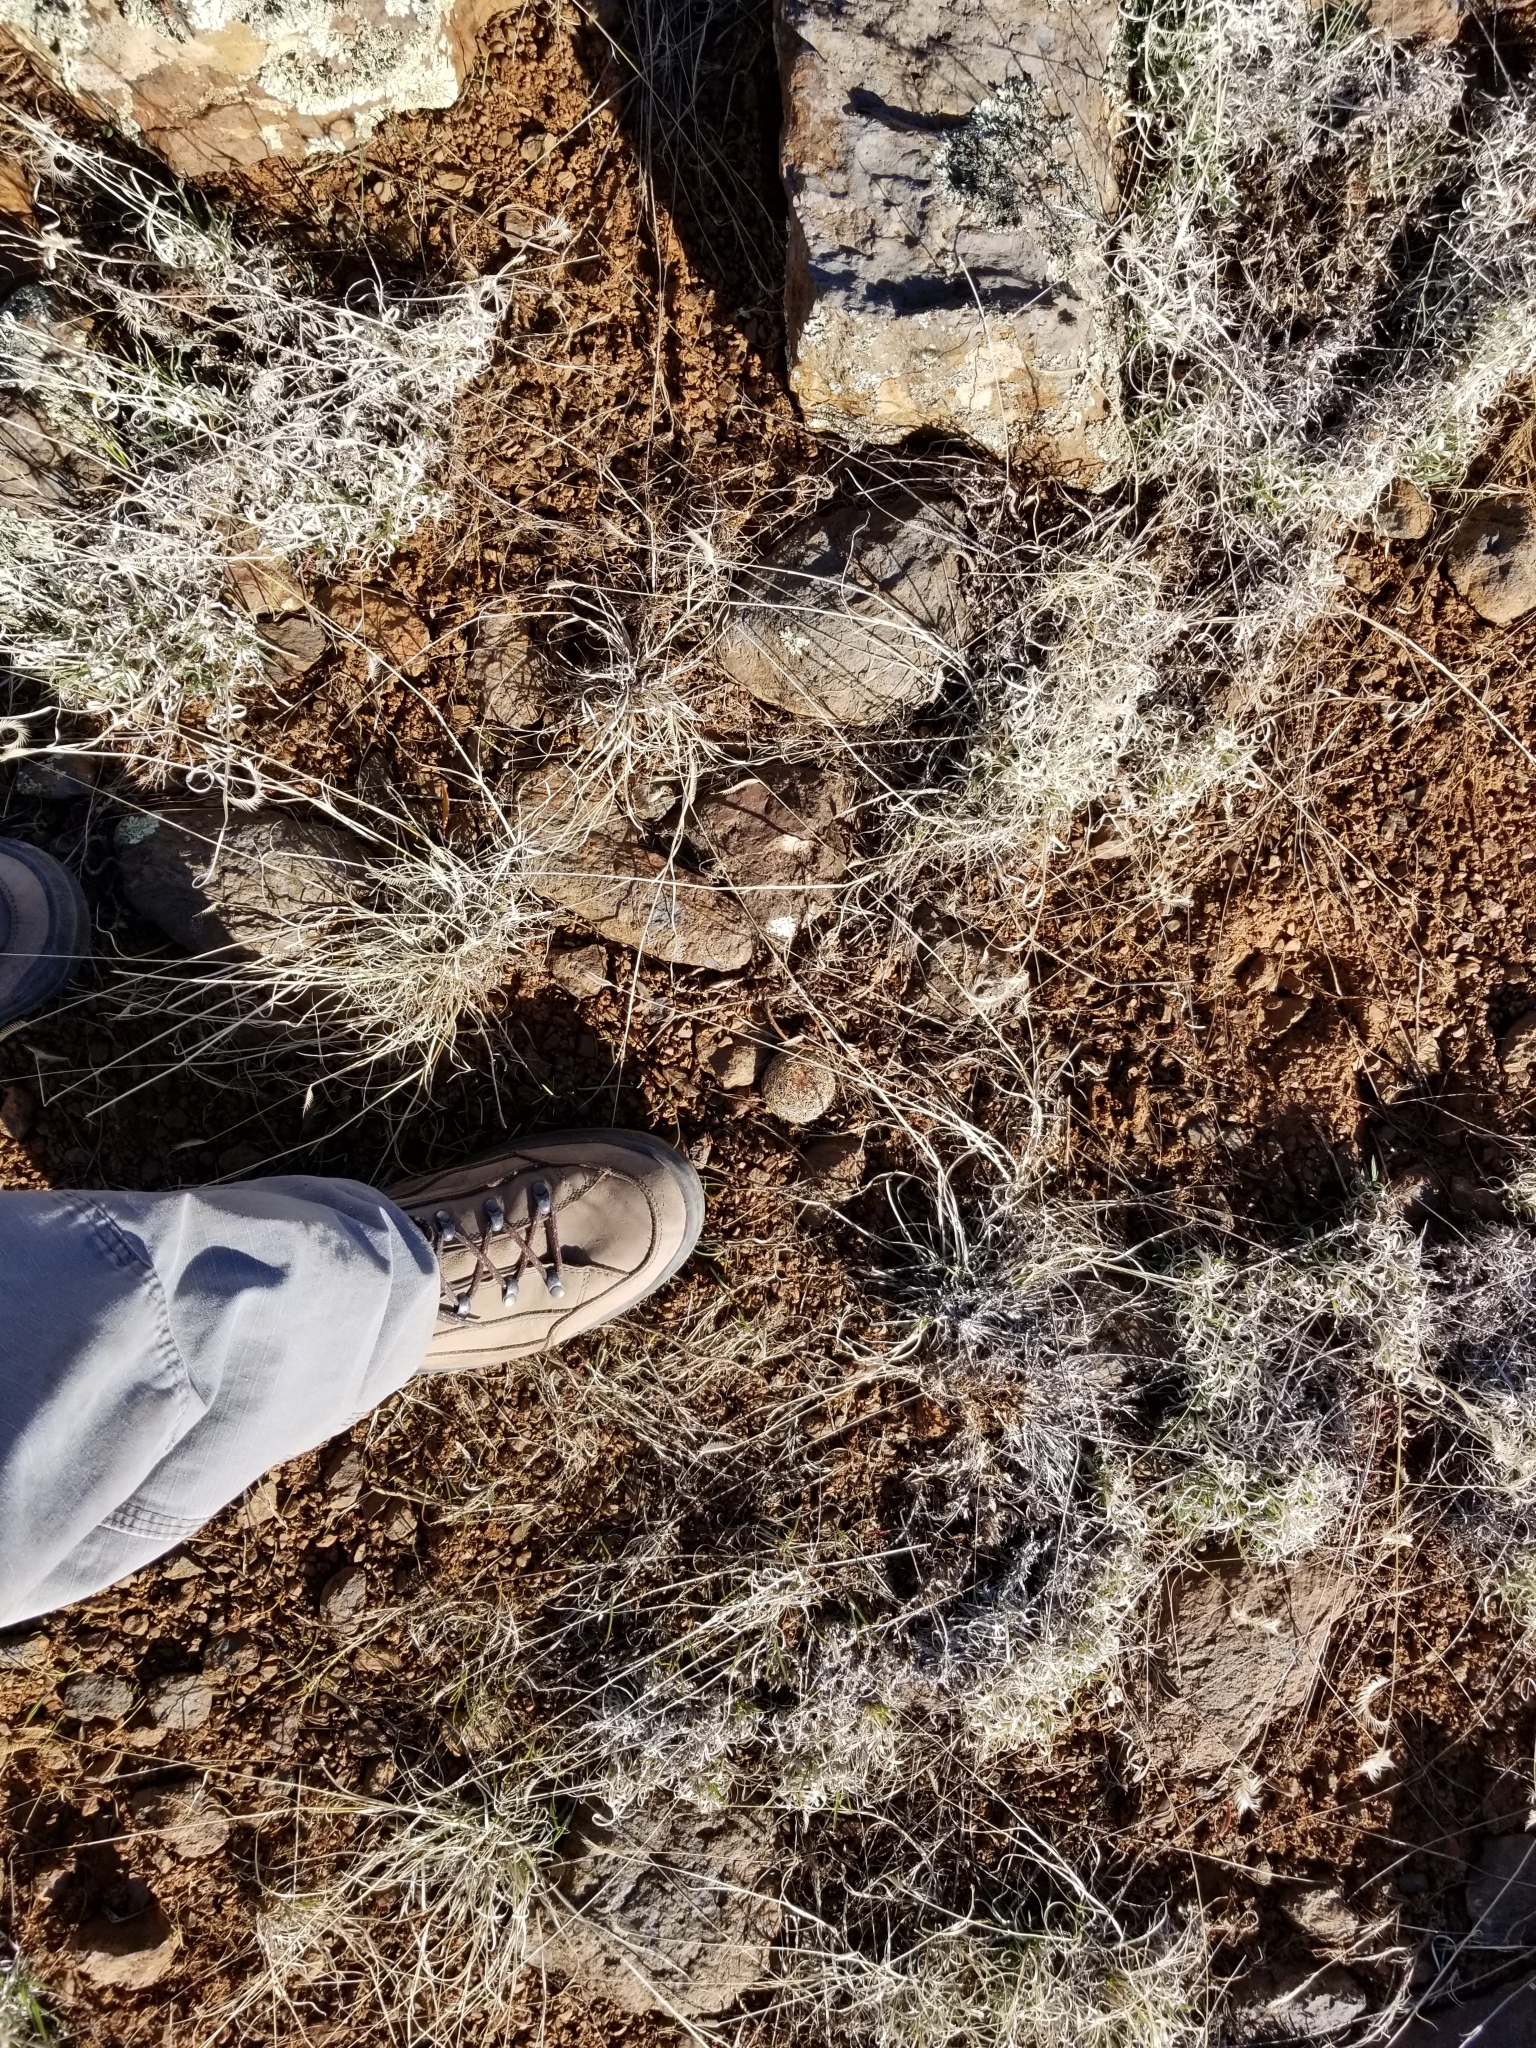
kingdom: Plantae
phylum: Tracheophyta
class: Magnoliopsida
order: Caryophyllales
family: Cactaceae
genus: Pelecyphora
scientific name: Pelecyphora vivipara
